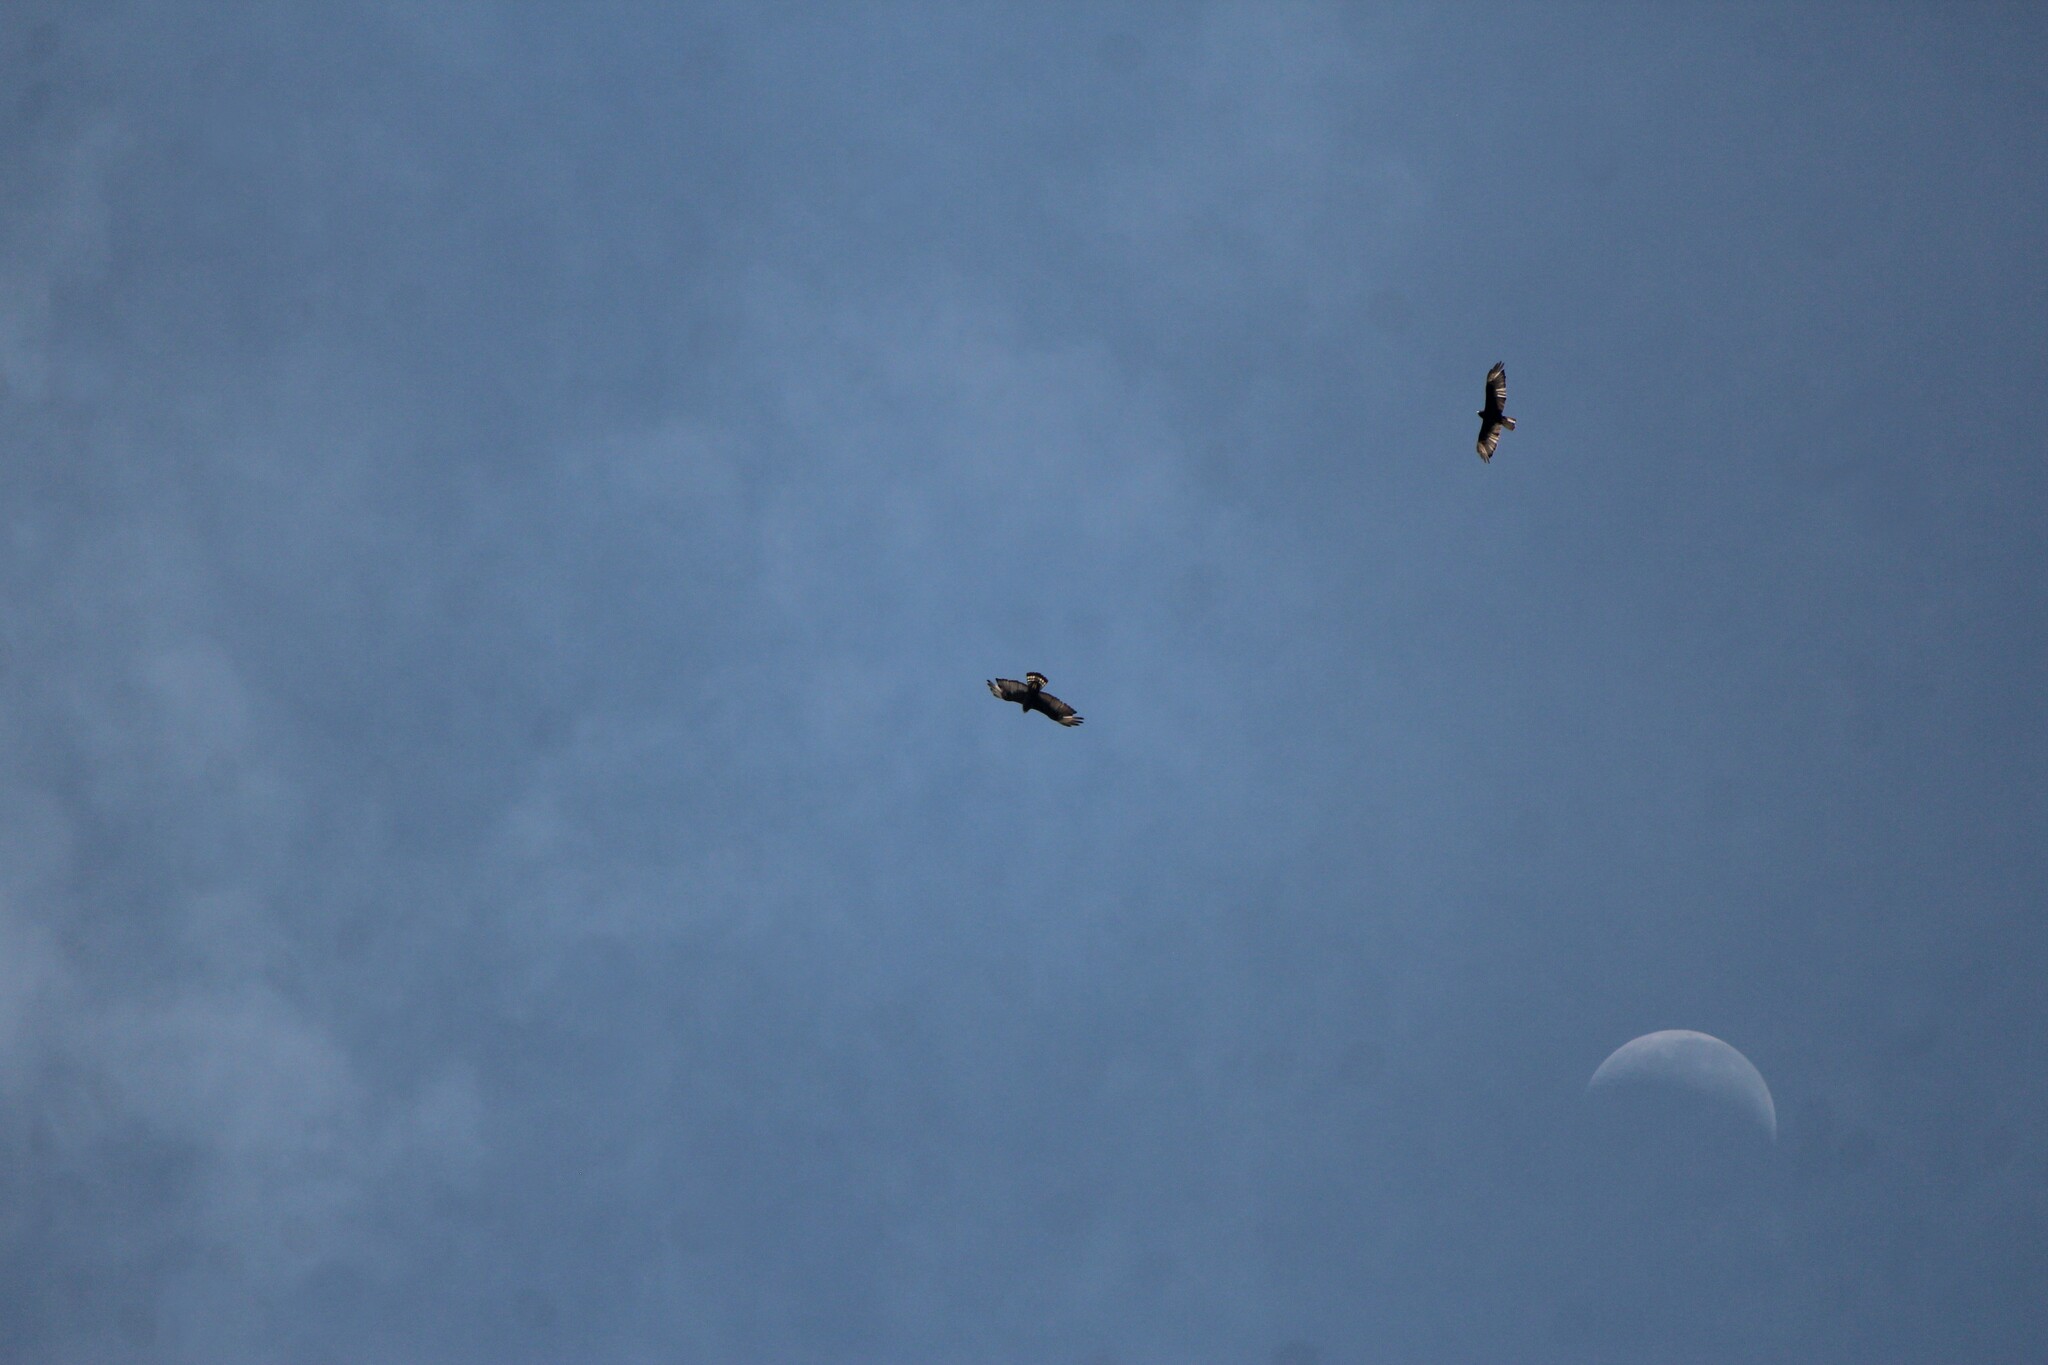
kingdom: Animalia
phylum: Chordata
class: Aves
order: Accipitriformes
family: Accipitridae
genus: Buteo
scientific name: Buteo albonotatus
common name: Zone-tailed hawk
